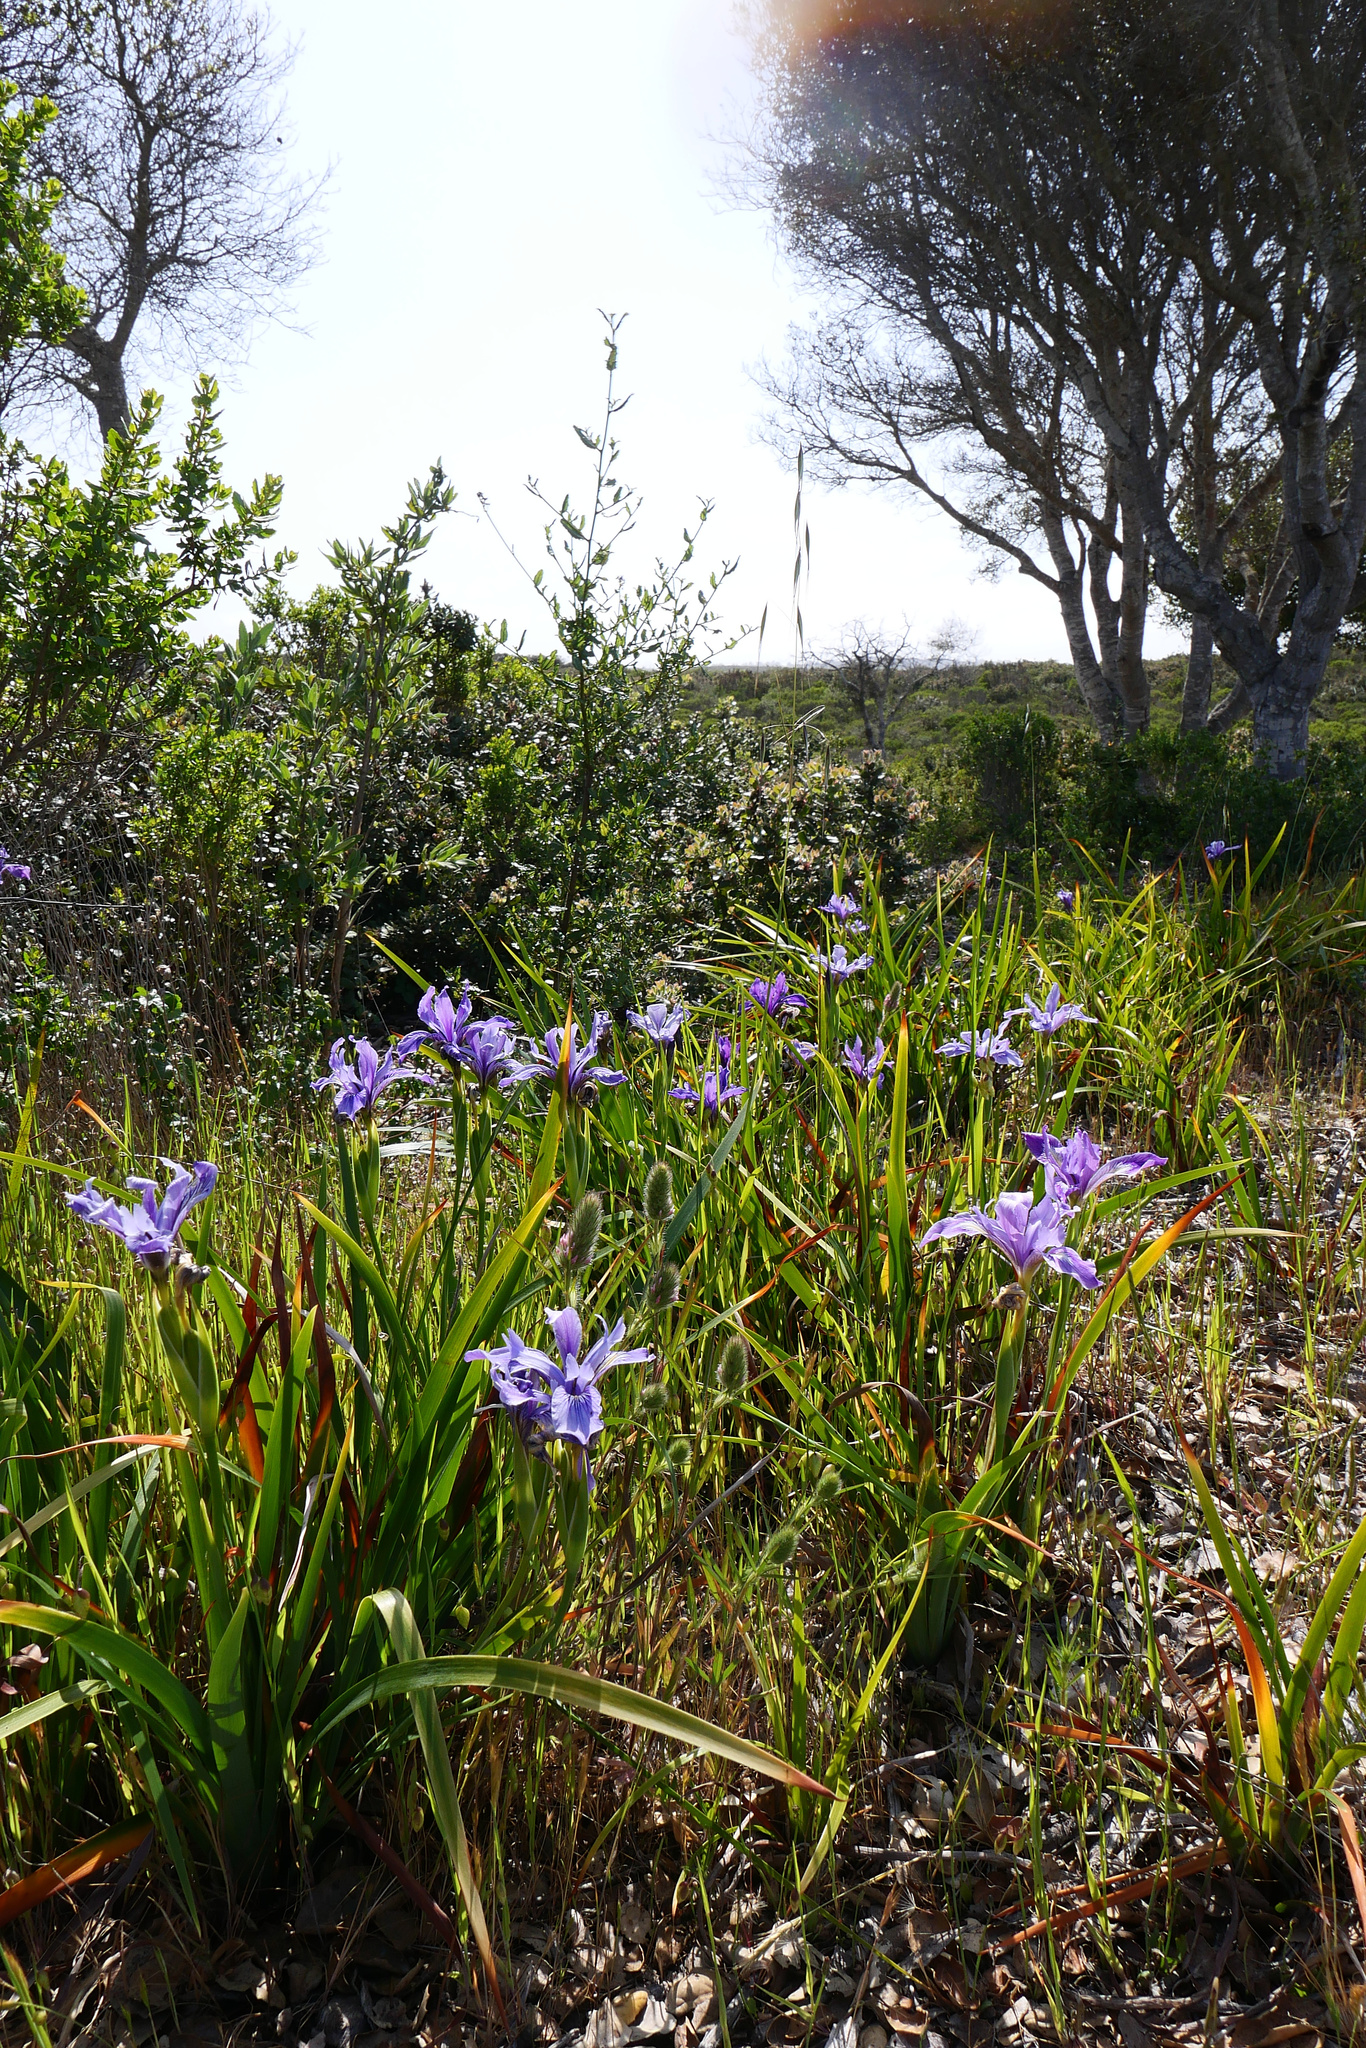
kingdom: Plantae
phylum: Tracheophyta
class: Liliopsida
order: Asparagales
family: Iridaceae
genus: Iris
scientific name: Iris douglasiana
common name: Marin iris
